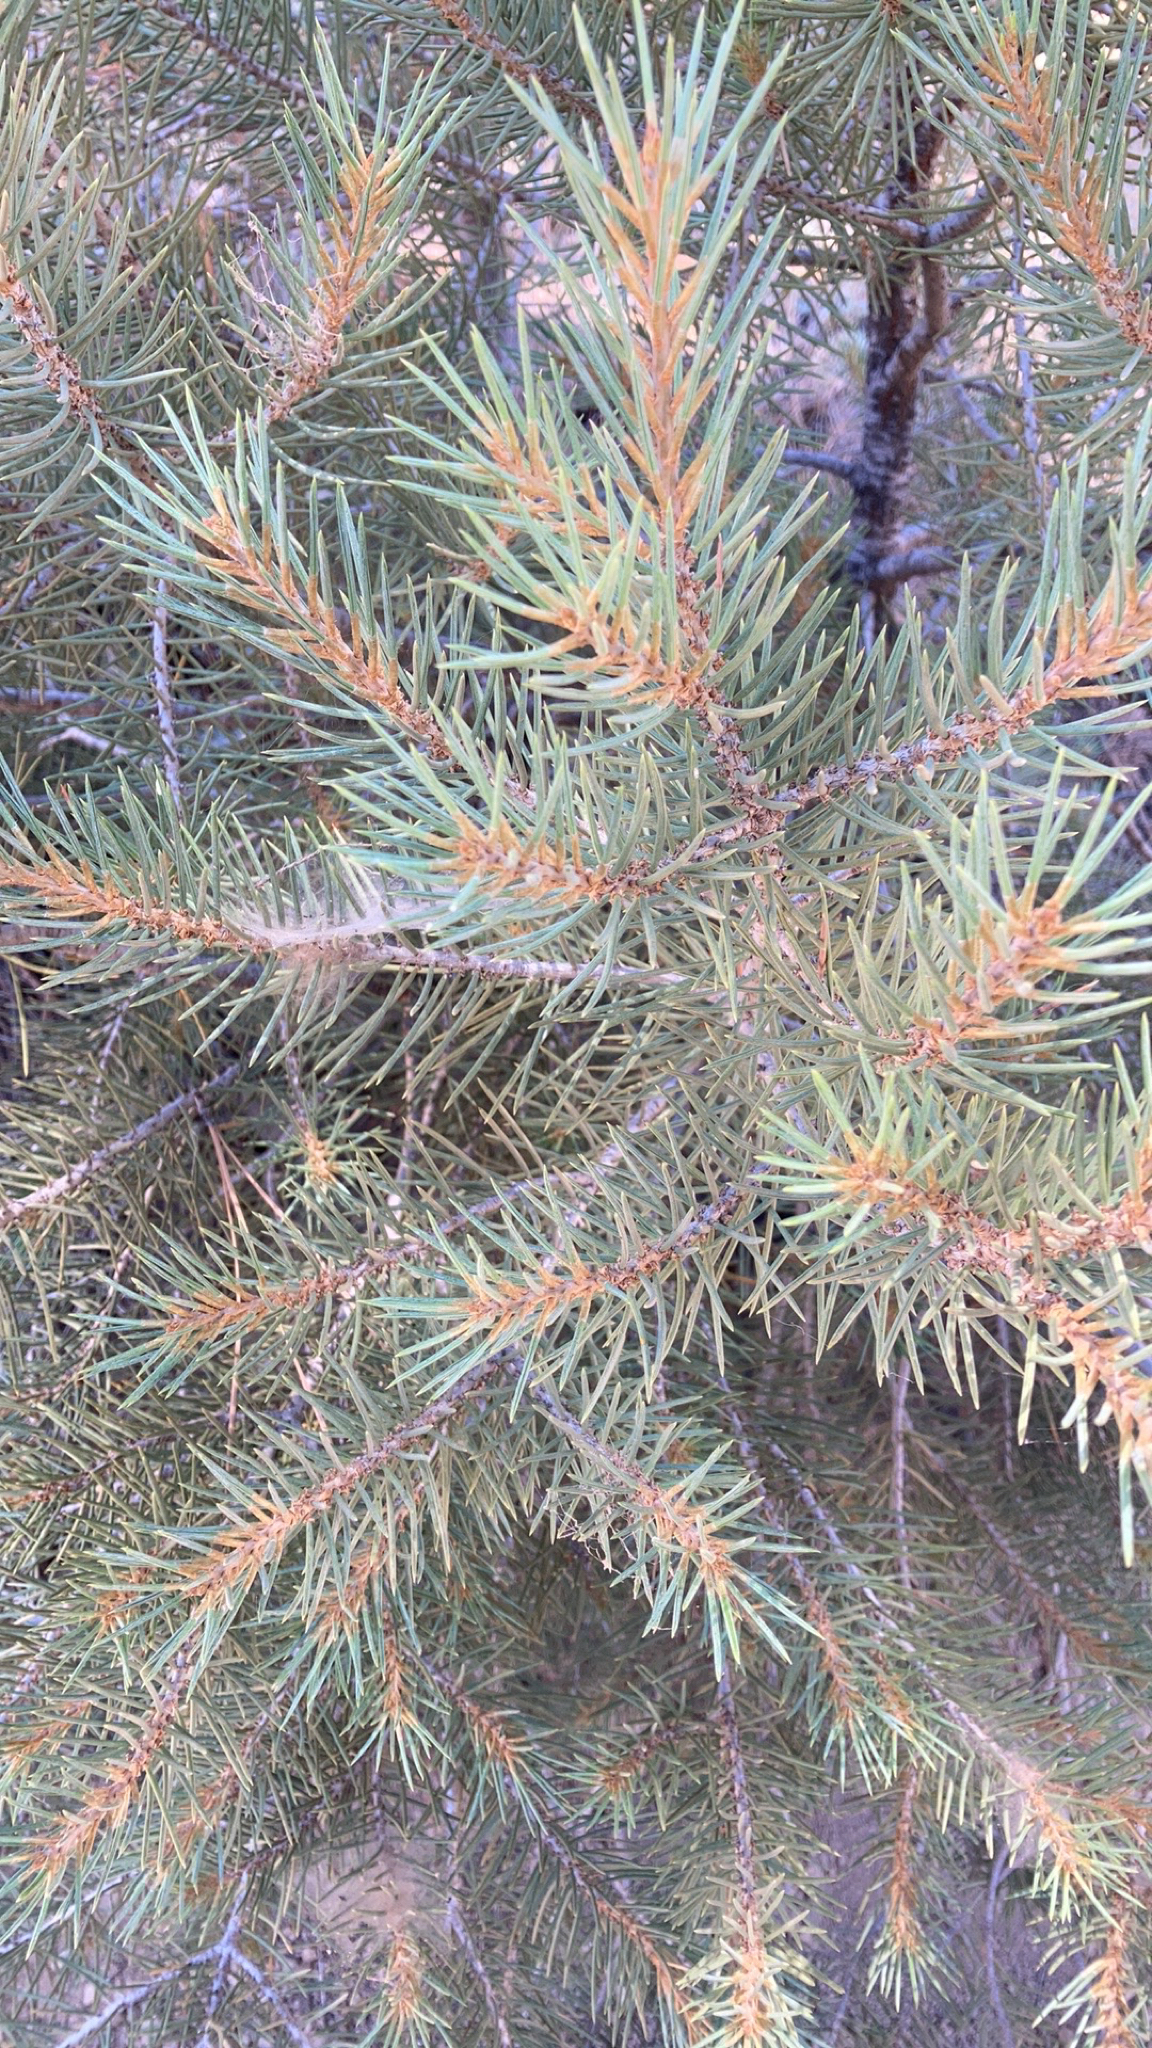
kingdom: Plantae
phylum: Tracheophyta
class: Pinopsida
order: Pinales
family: Pinaceae
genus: Pinus
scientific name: Pinus monophylla
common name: One-leaved nut pine
